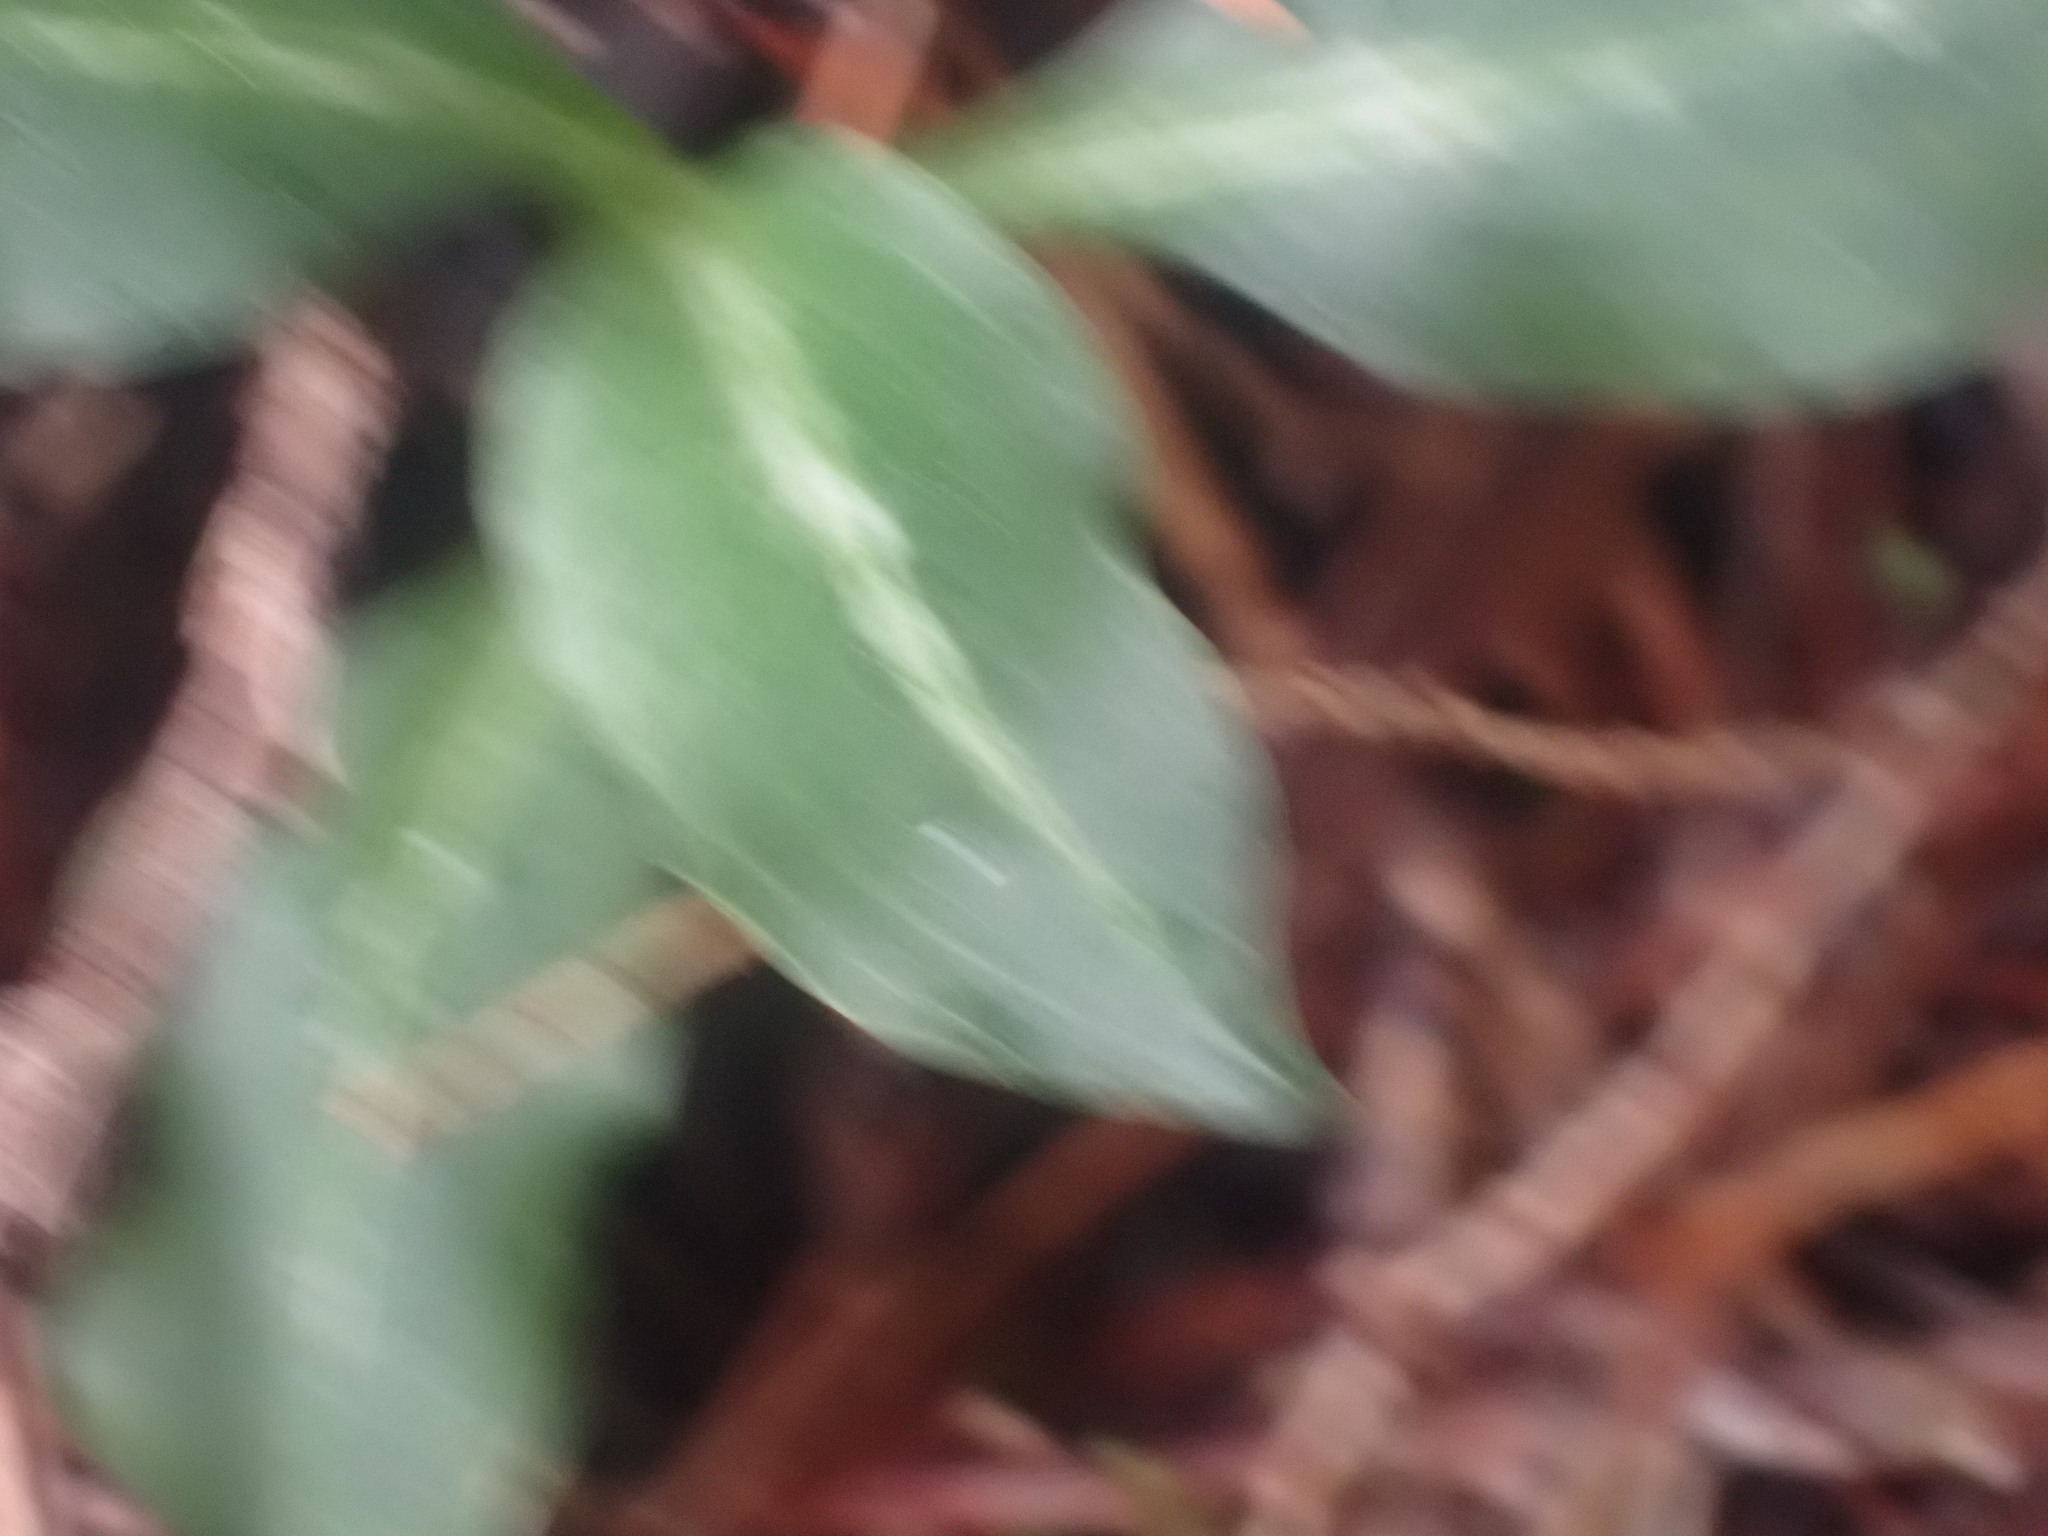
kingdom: Plantae
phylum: Tracheophyta
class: Liliopsida
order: Asparagales
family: Orchidaceae
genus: Goodyera
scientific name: Goodyera oblongifolia
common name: Giant rattlesnake-plantain
